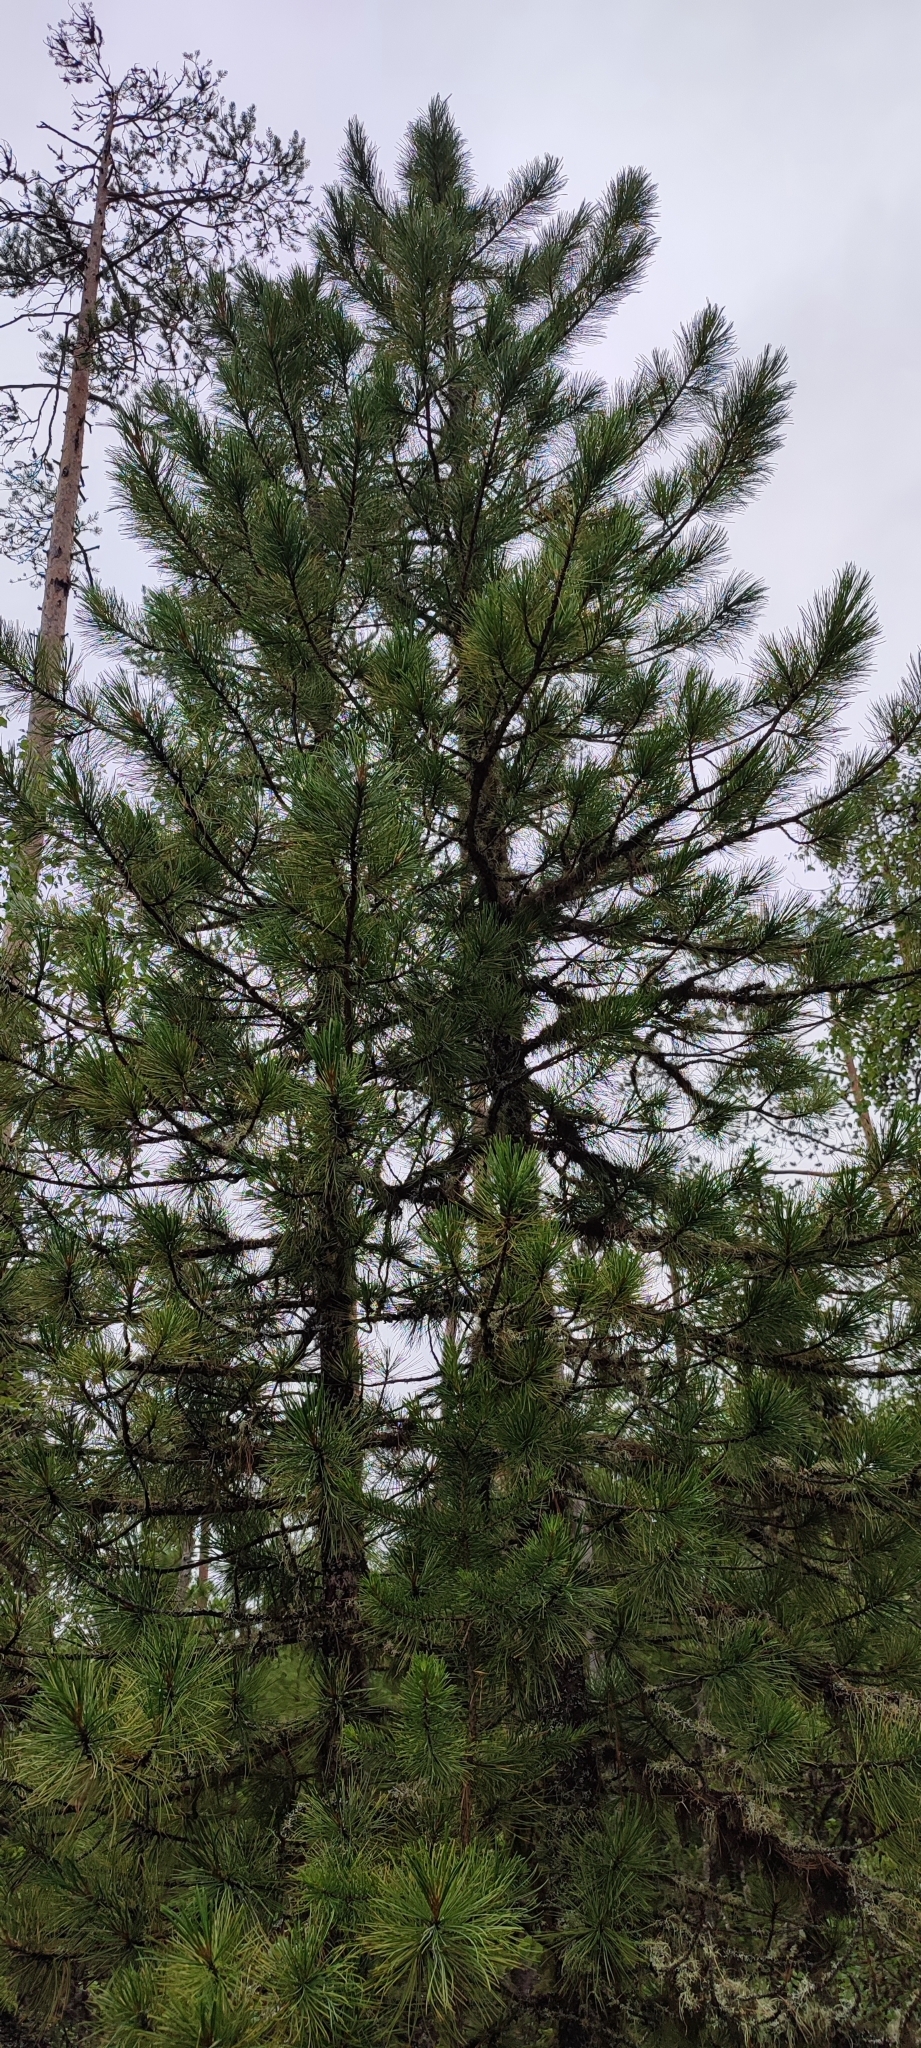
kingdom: Plantae
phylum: Tracheophyta
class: Pinopsida
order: Pinales
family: Pinaceae
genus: Pinus
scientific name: Pinus sibirica
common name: Siberian pine
